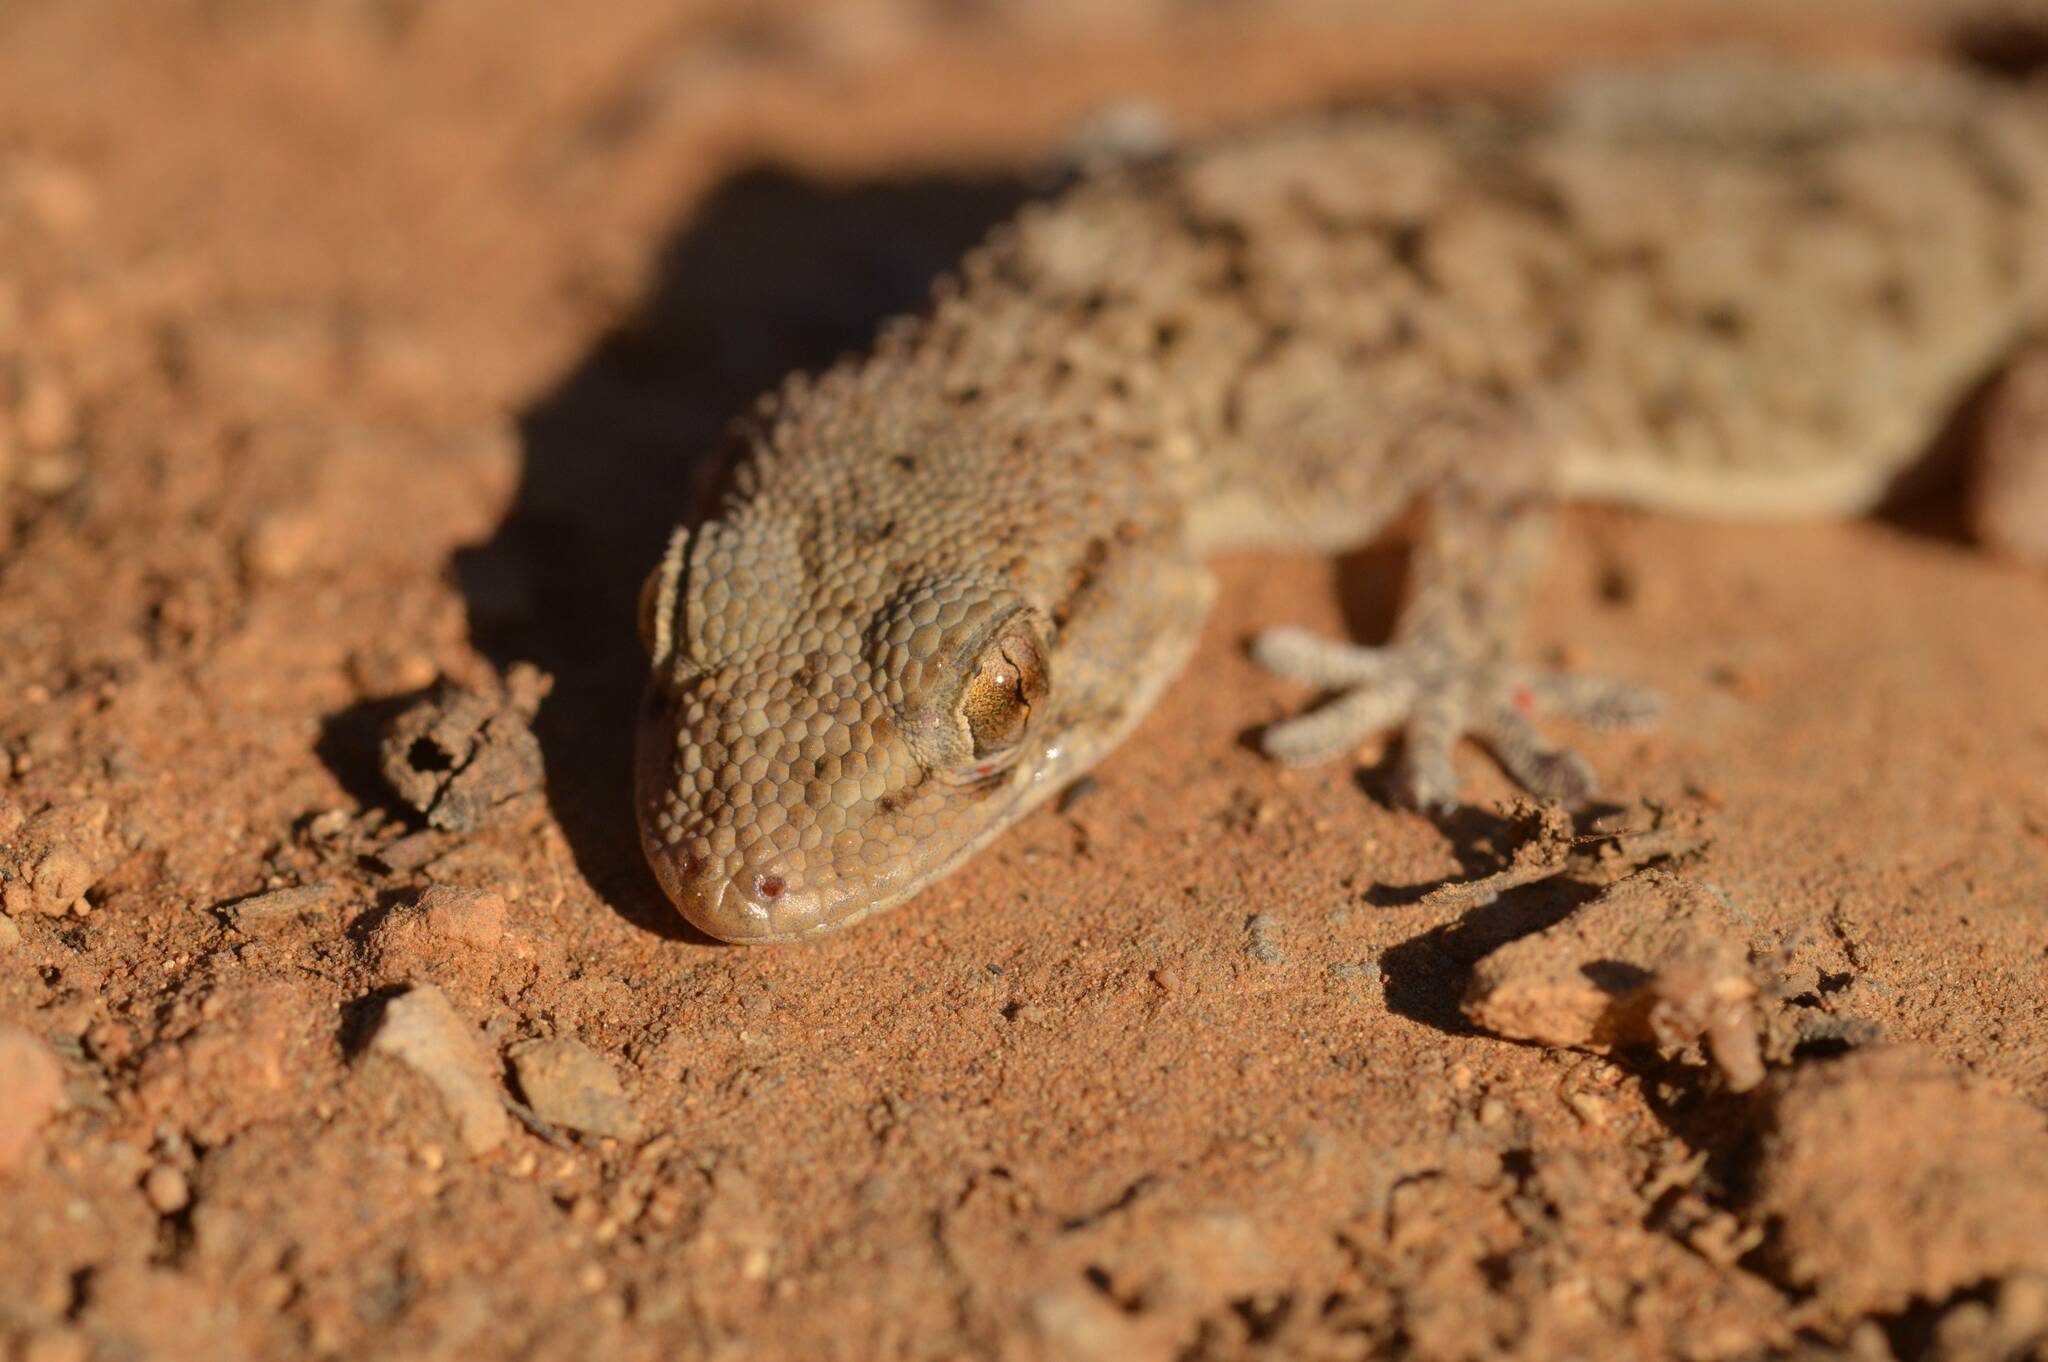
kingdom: Animalia
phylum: Chordata
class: Squamata
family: Phyllodactylidae
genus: Tarentola
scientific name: Tarentola mauritanica
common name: Moorish gecko
